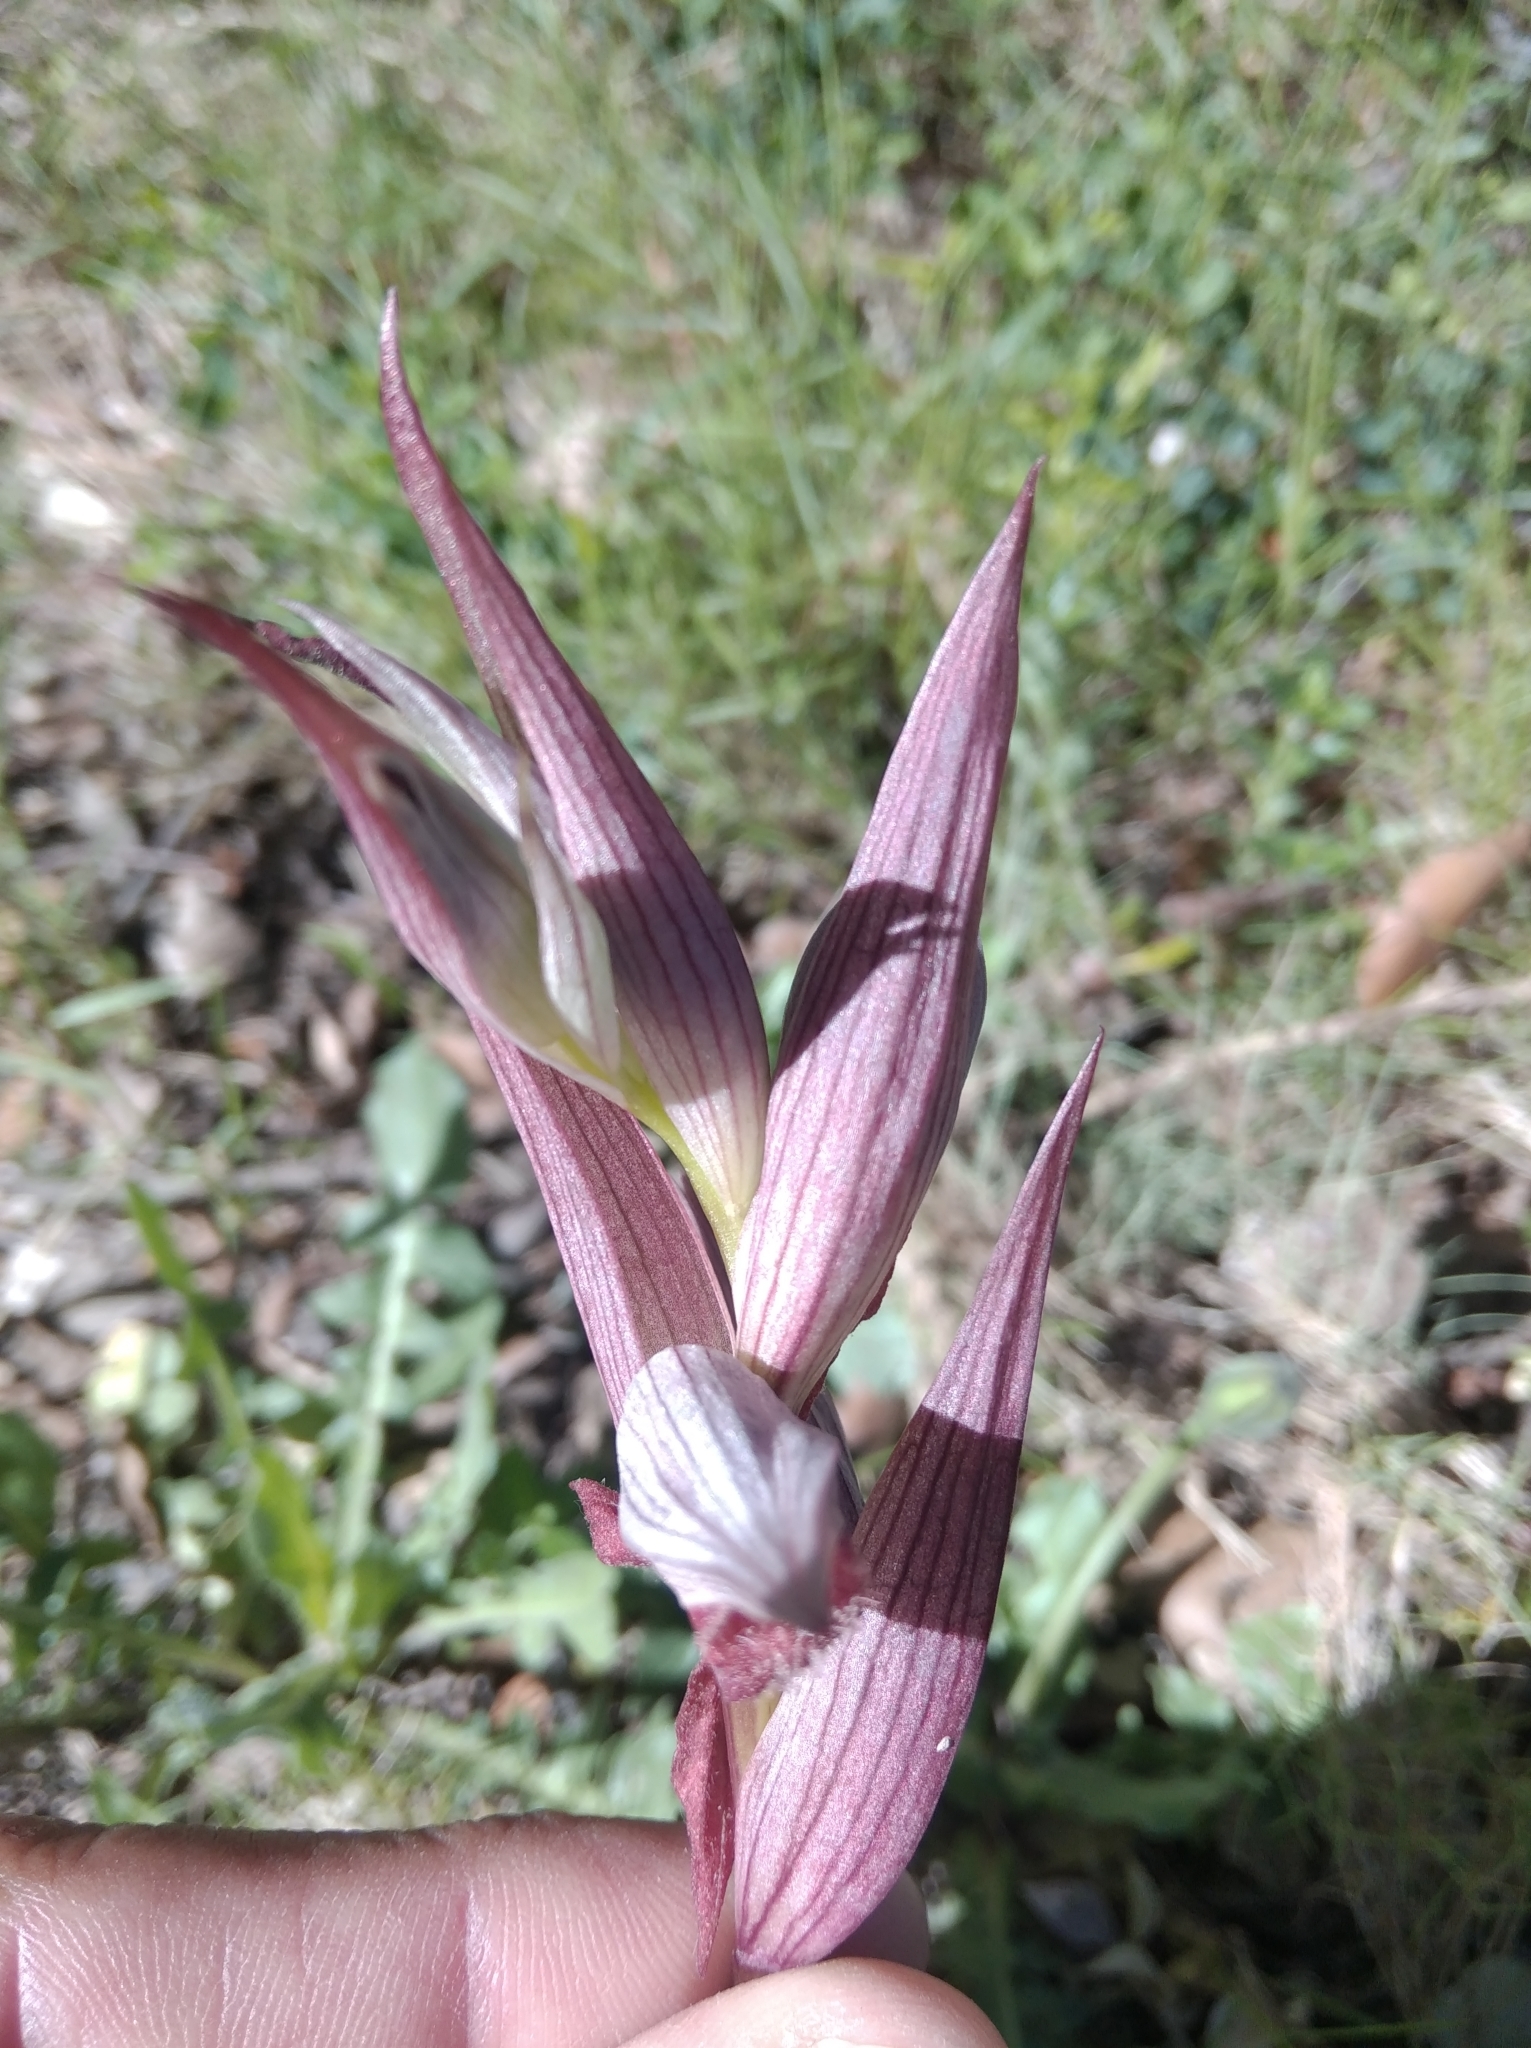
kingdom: Plantae
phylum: Tracheophyta
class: Liliopsida
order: Asparagales
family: Orchidaceae
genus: Serapias
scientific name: Serapias vomeracea
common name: Long-lipped tongue-orchid
